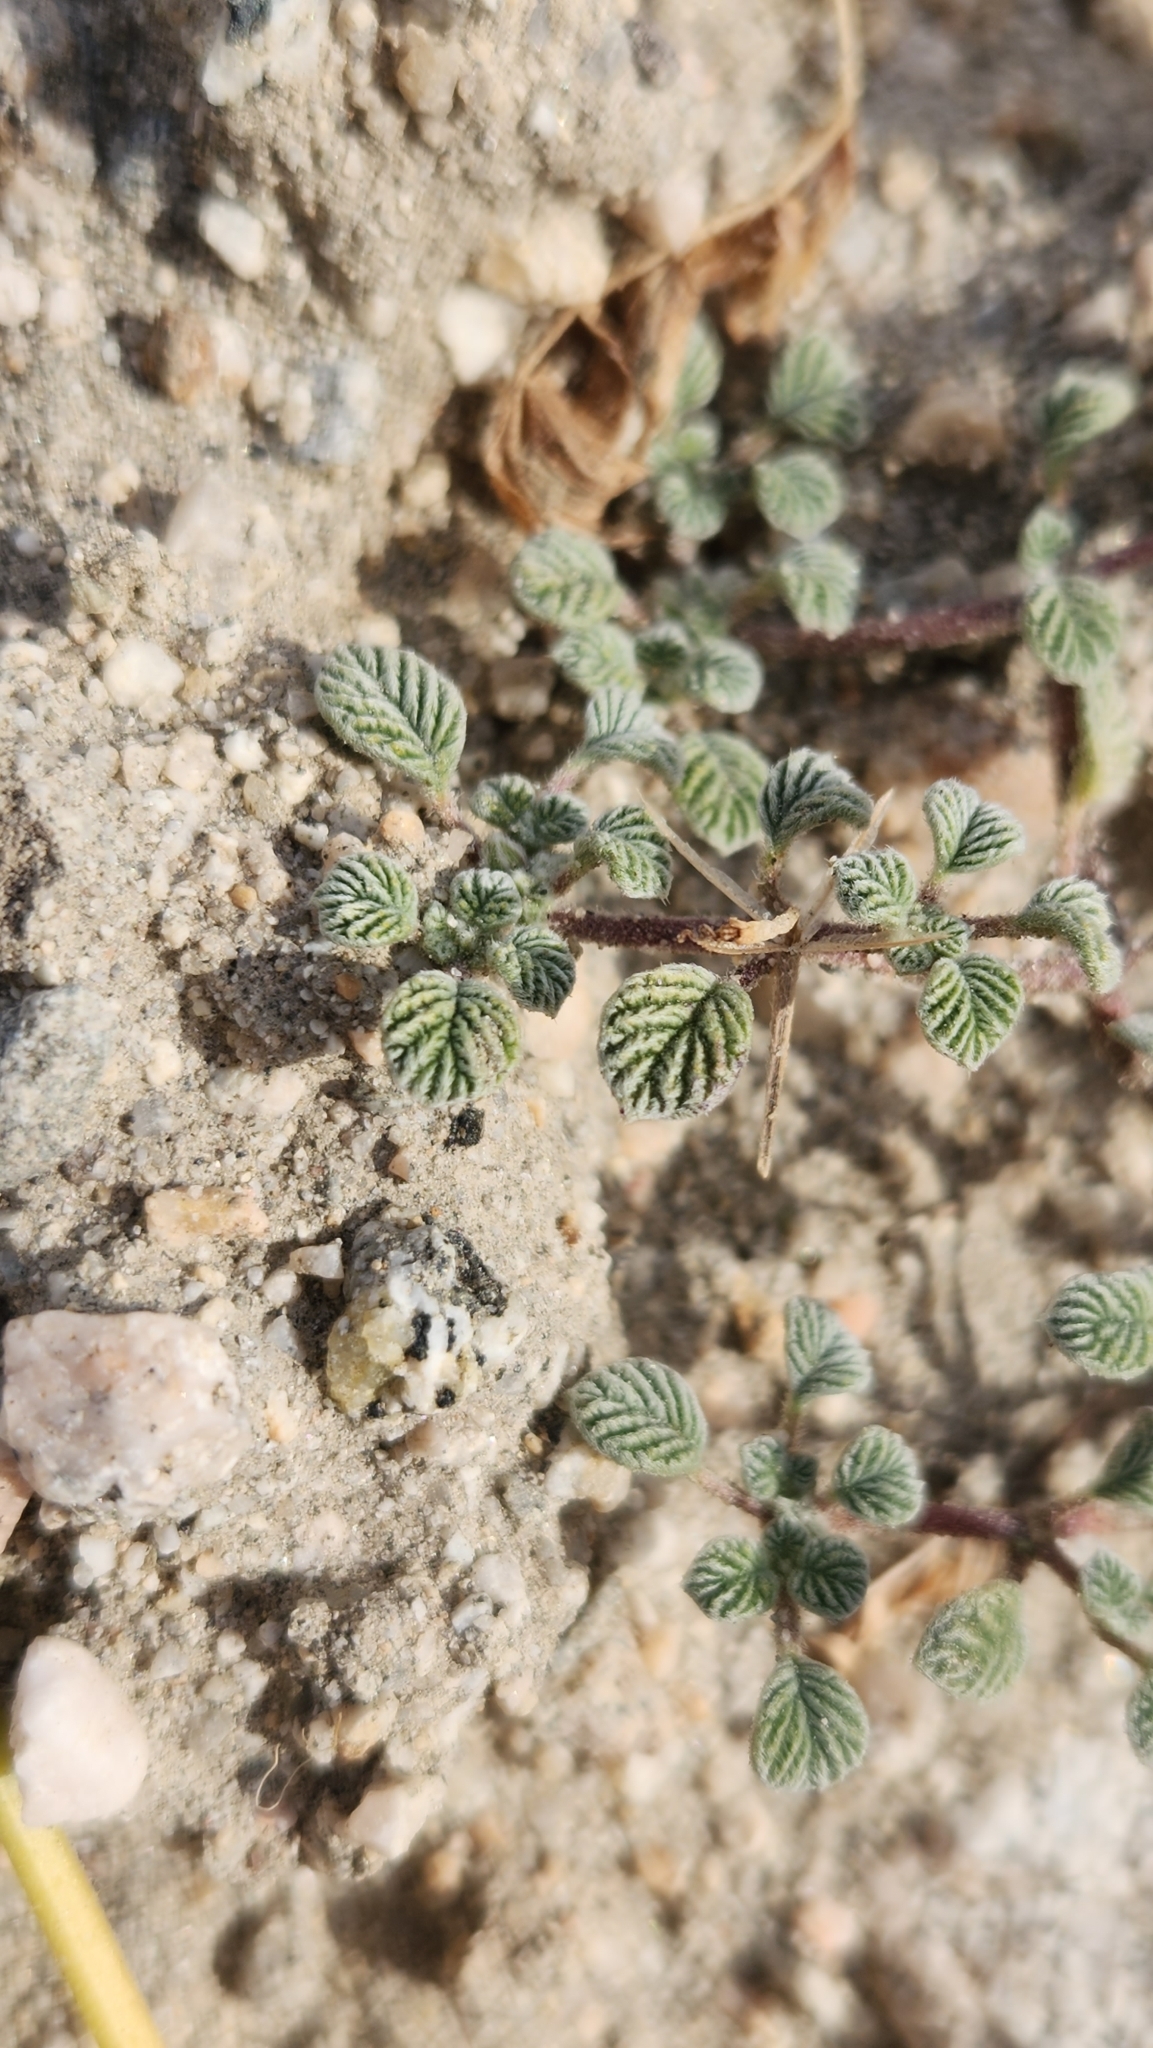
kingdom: Plantae
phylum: Tracheophyta
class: Magnoliopsida
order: Boraginales
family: Ehretiaceae
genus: Tiquilia
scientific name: Tiquilia plicata
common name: Fan-leaf tiquilia
